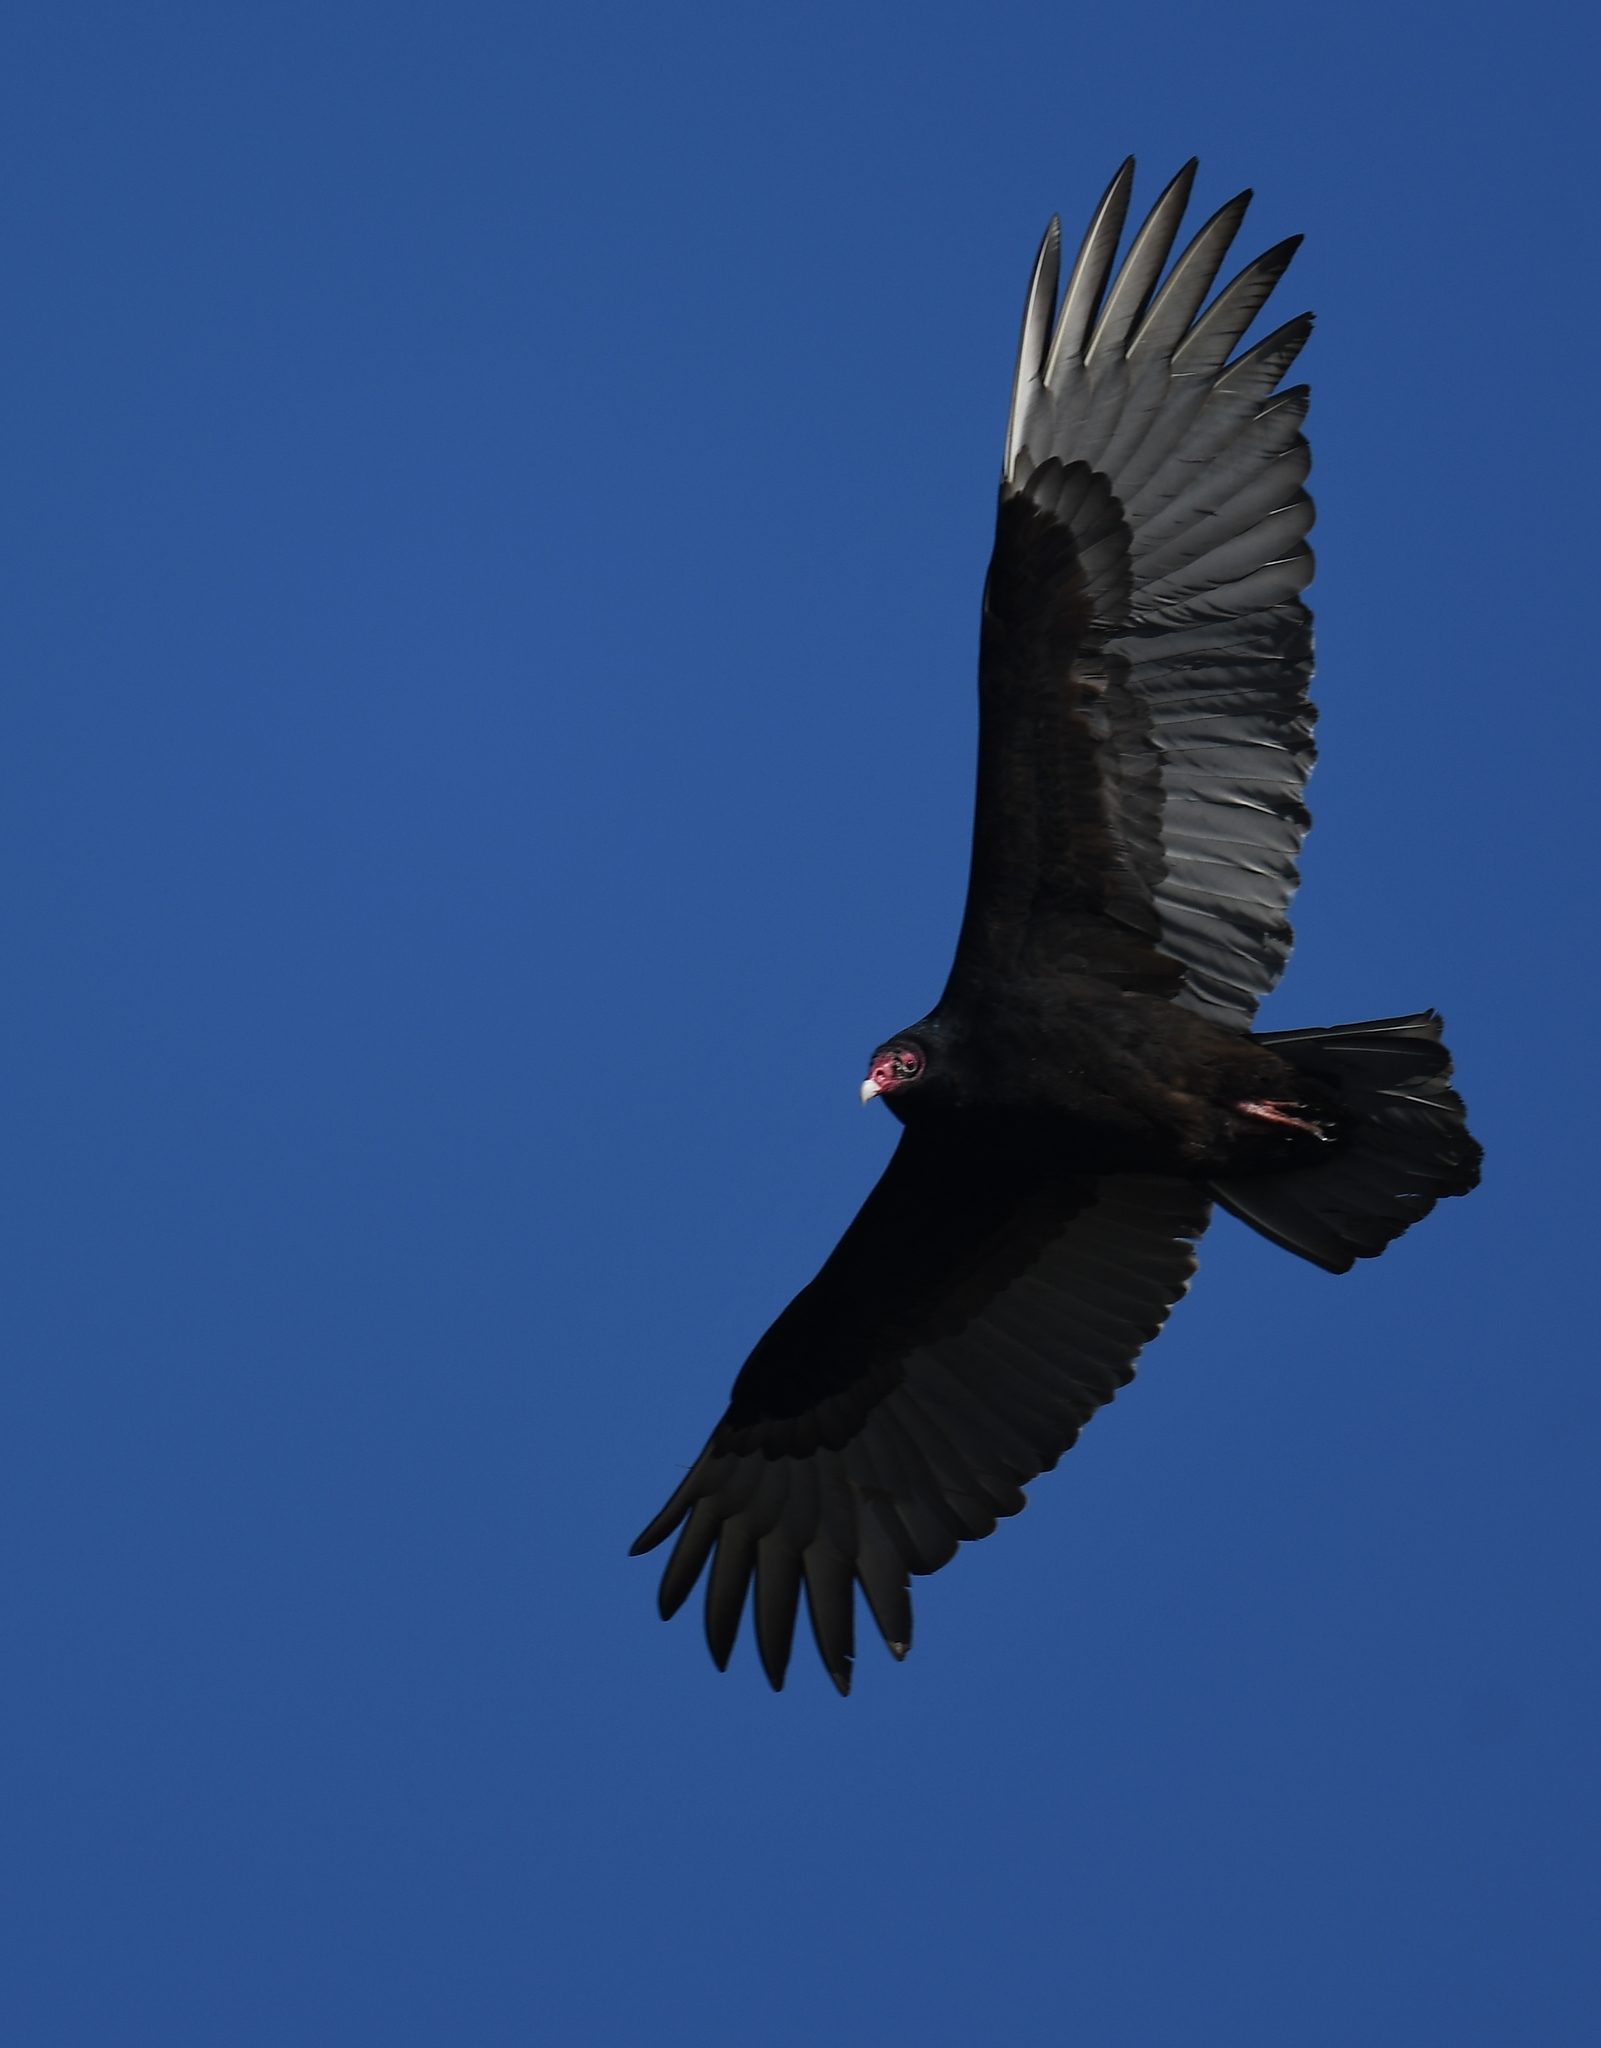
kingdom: Animalia
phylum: Chordata
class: Aves
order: Accipitriformes
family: Cathartidae
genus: Cathartes
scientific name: Cathartes aura
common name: Turkey vulture
